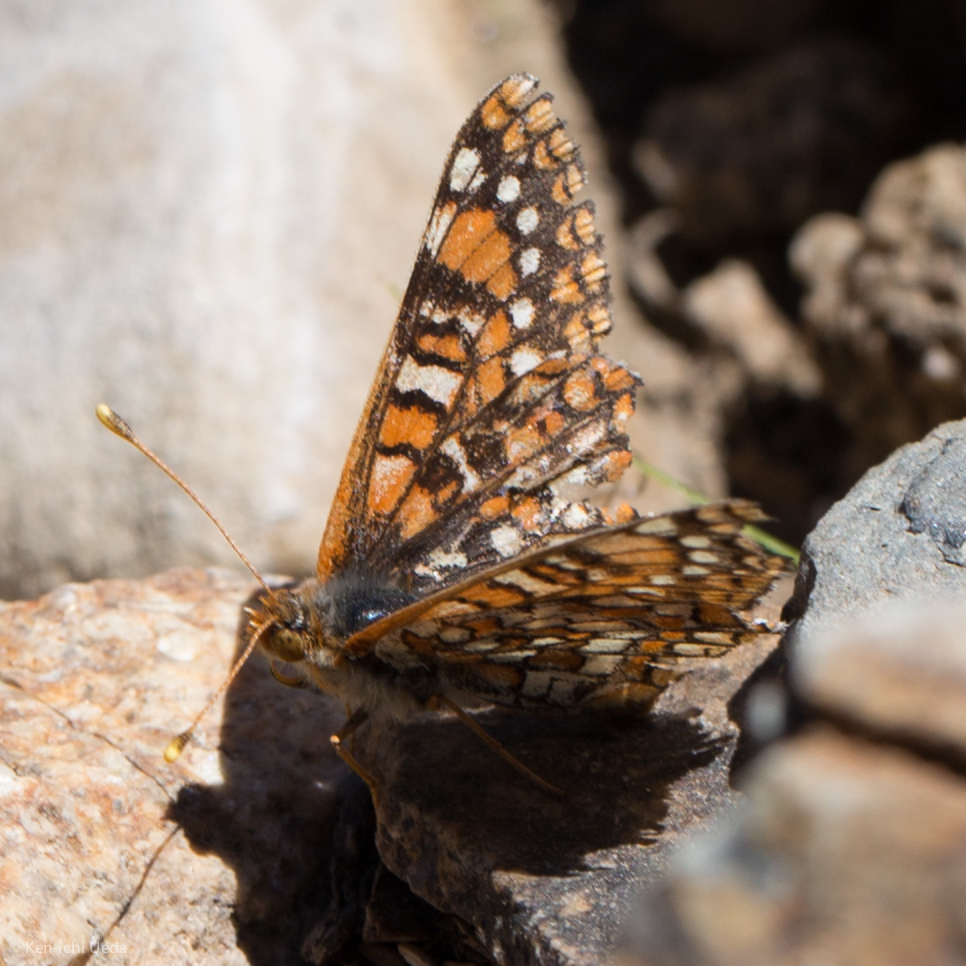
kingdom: Animalia
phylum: Arthropoda
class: Insecta
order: Lepidoptera
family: Nymphalidae
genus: Occidryas
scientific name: Occidryas anicia
